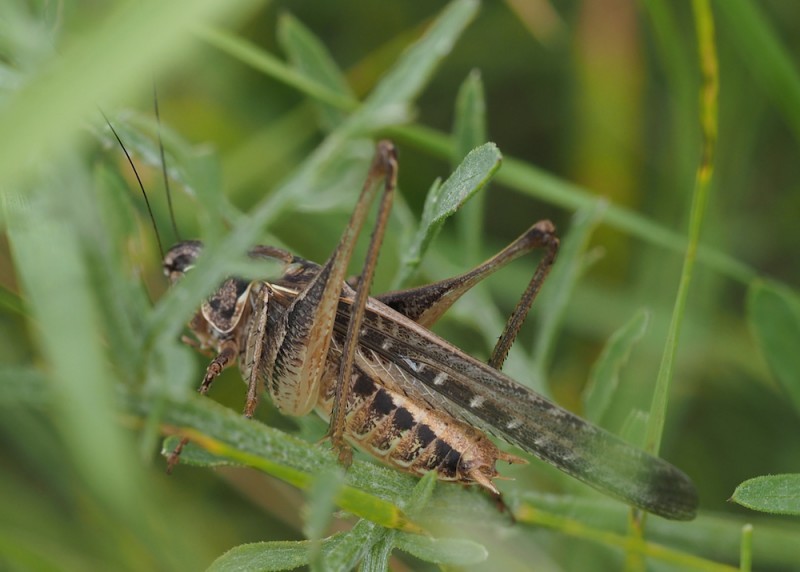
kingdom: Animalia
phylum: Arthropoda
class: Insecta
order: Orthoptera
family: Tettigoniidae
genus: Platycleis
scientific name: Platycleis affinis
